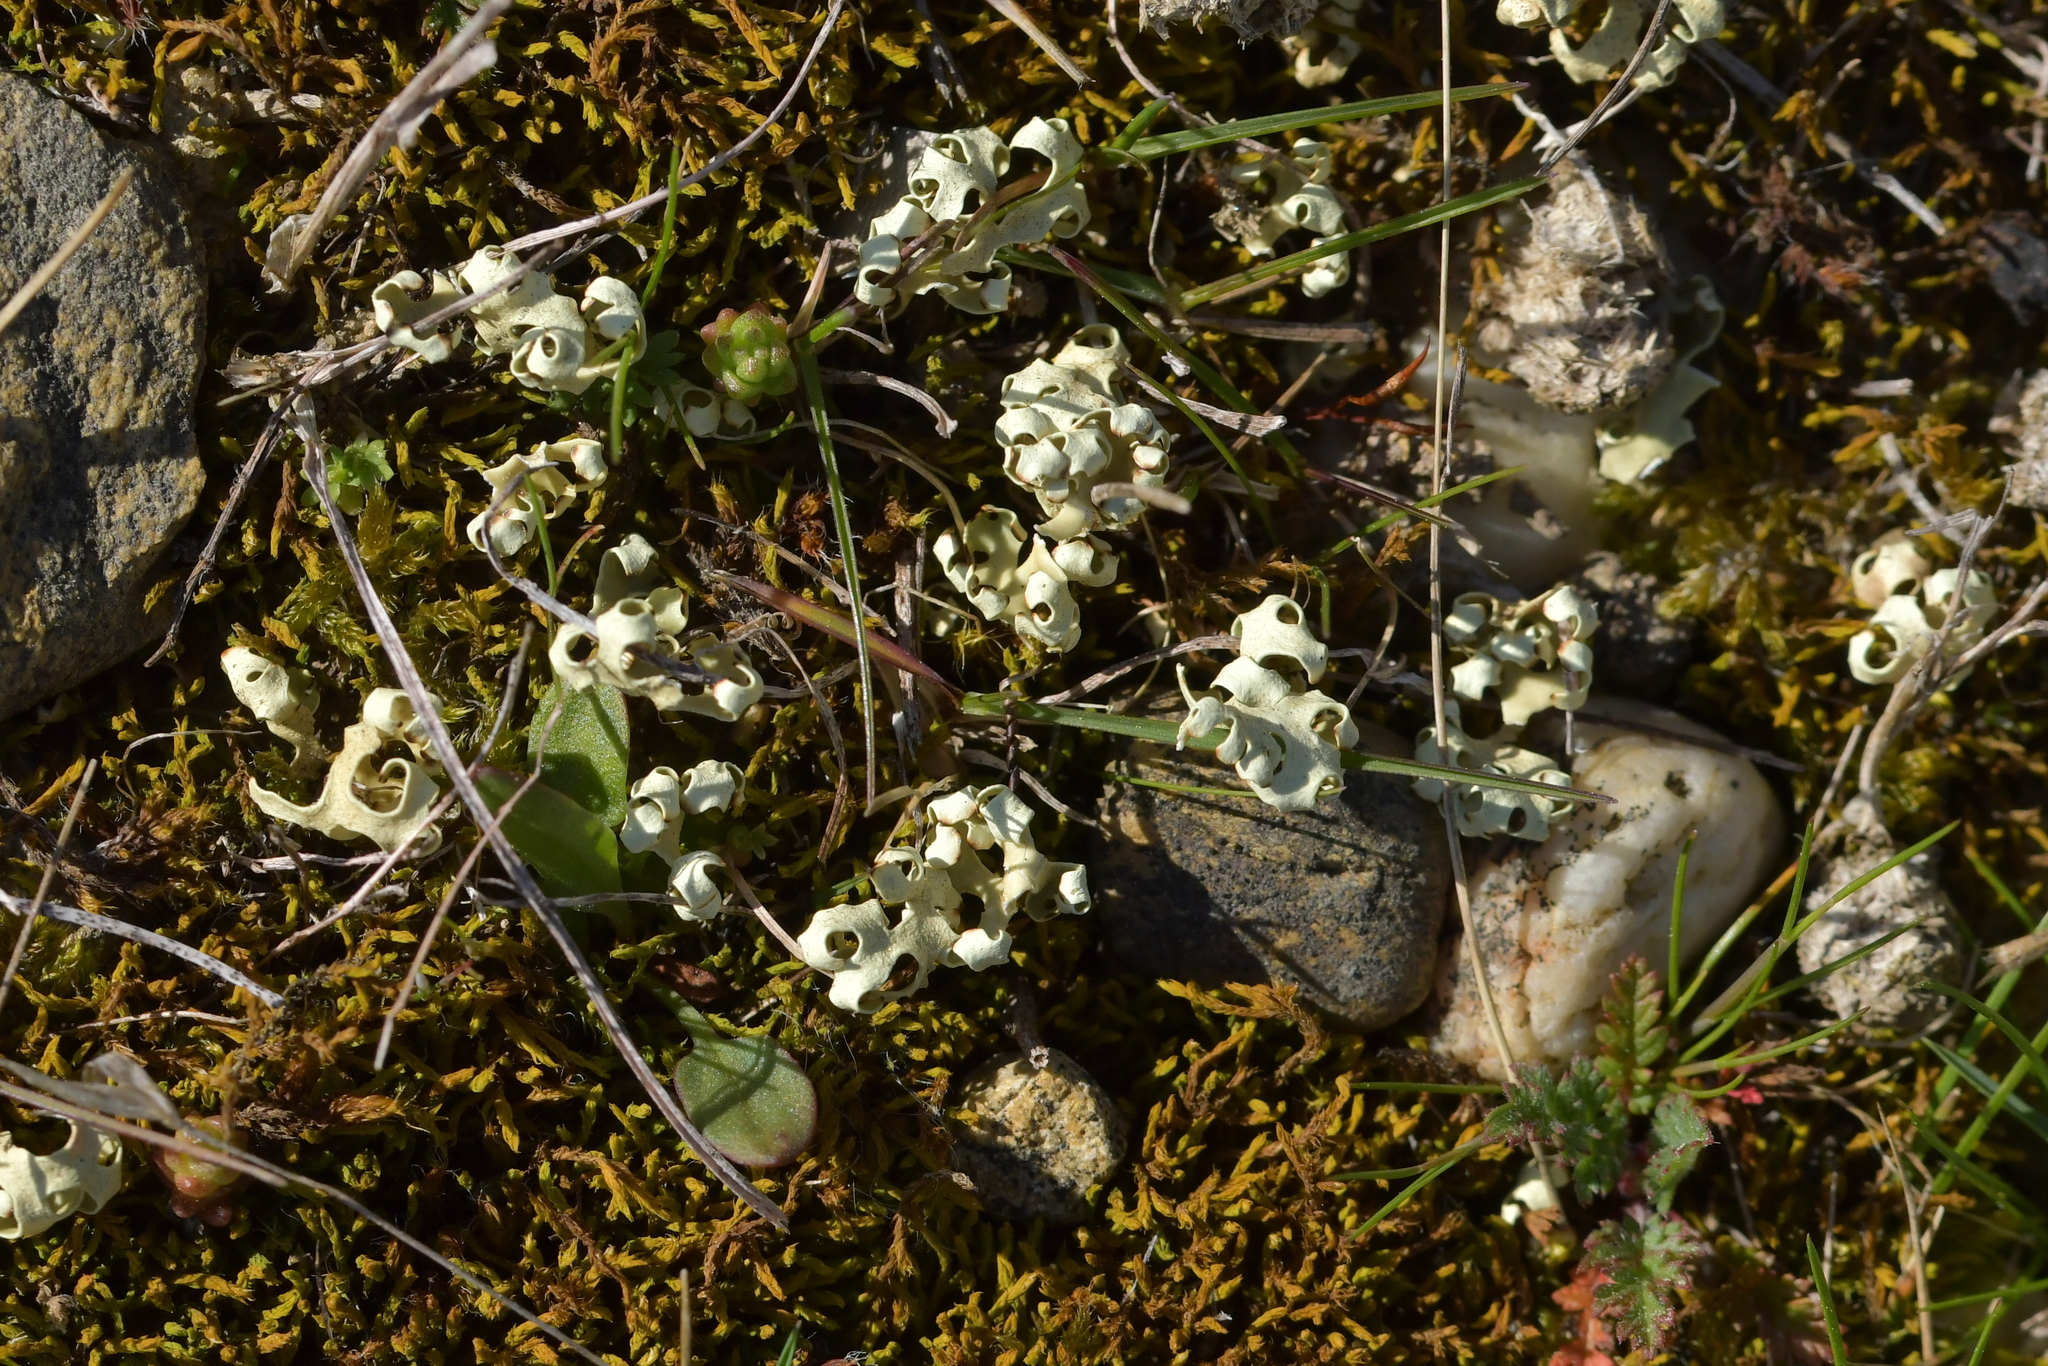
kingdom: Fungi
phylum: Ascomycota
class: Lecanoromycetes
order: Lecanorales
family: Parmeliaceae
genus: Xanthoparmelia
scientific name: Xanthoparmelia semiviridis
